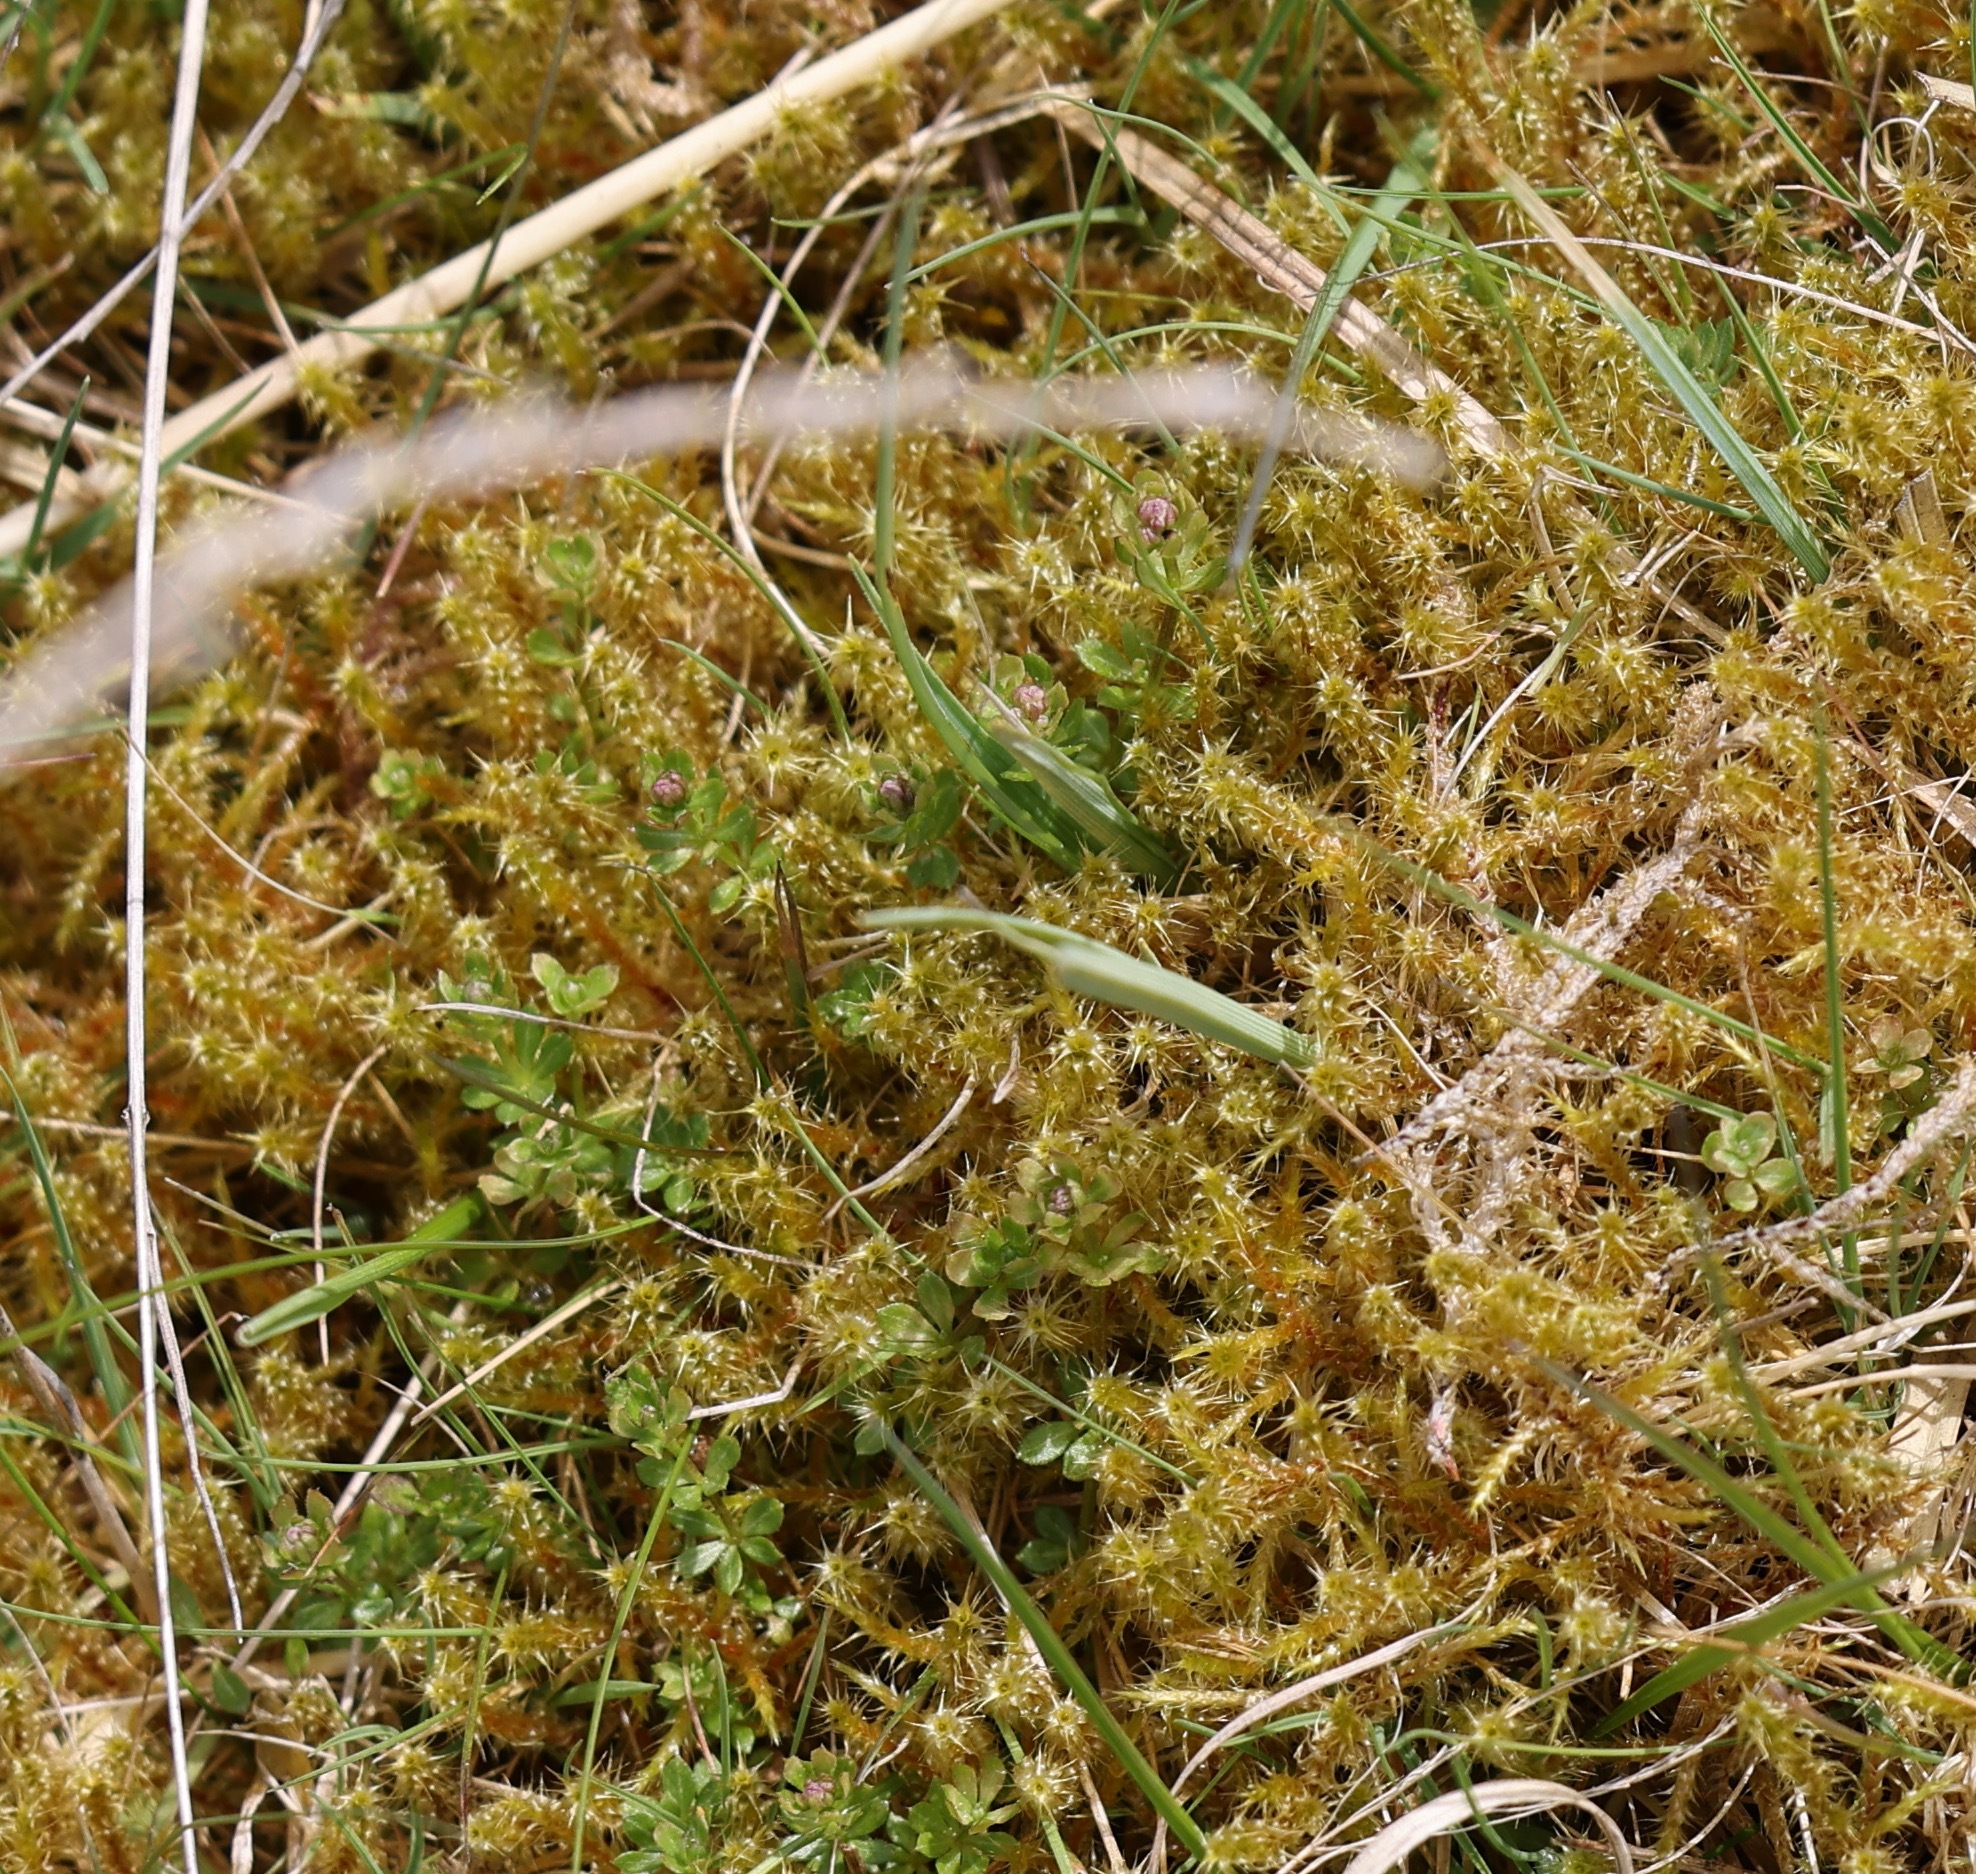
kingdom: Plantae
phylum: Bryophyta
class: Bryopsida
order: Hypnales
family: Hylocomiaceae
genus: Rhytidiadelphus
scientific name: Rhytidiadelphus squarrosus
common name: Springy turf-moss
